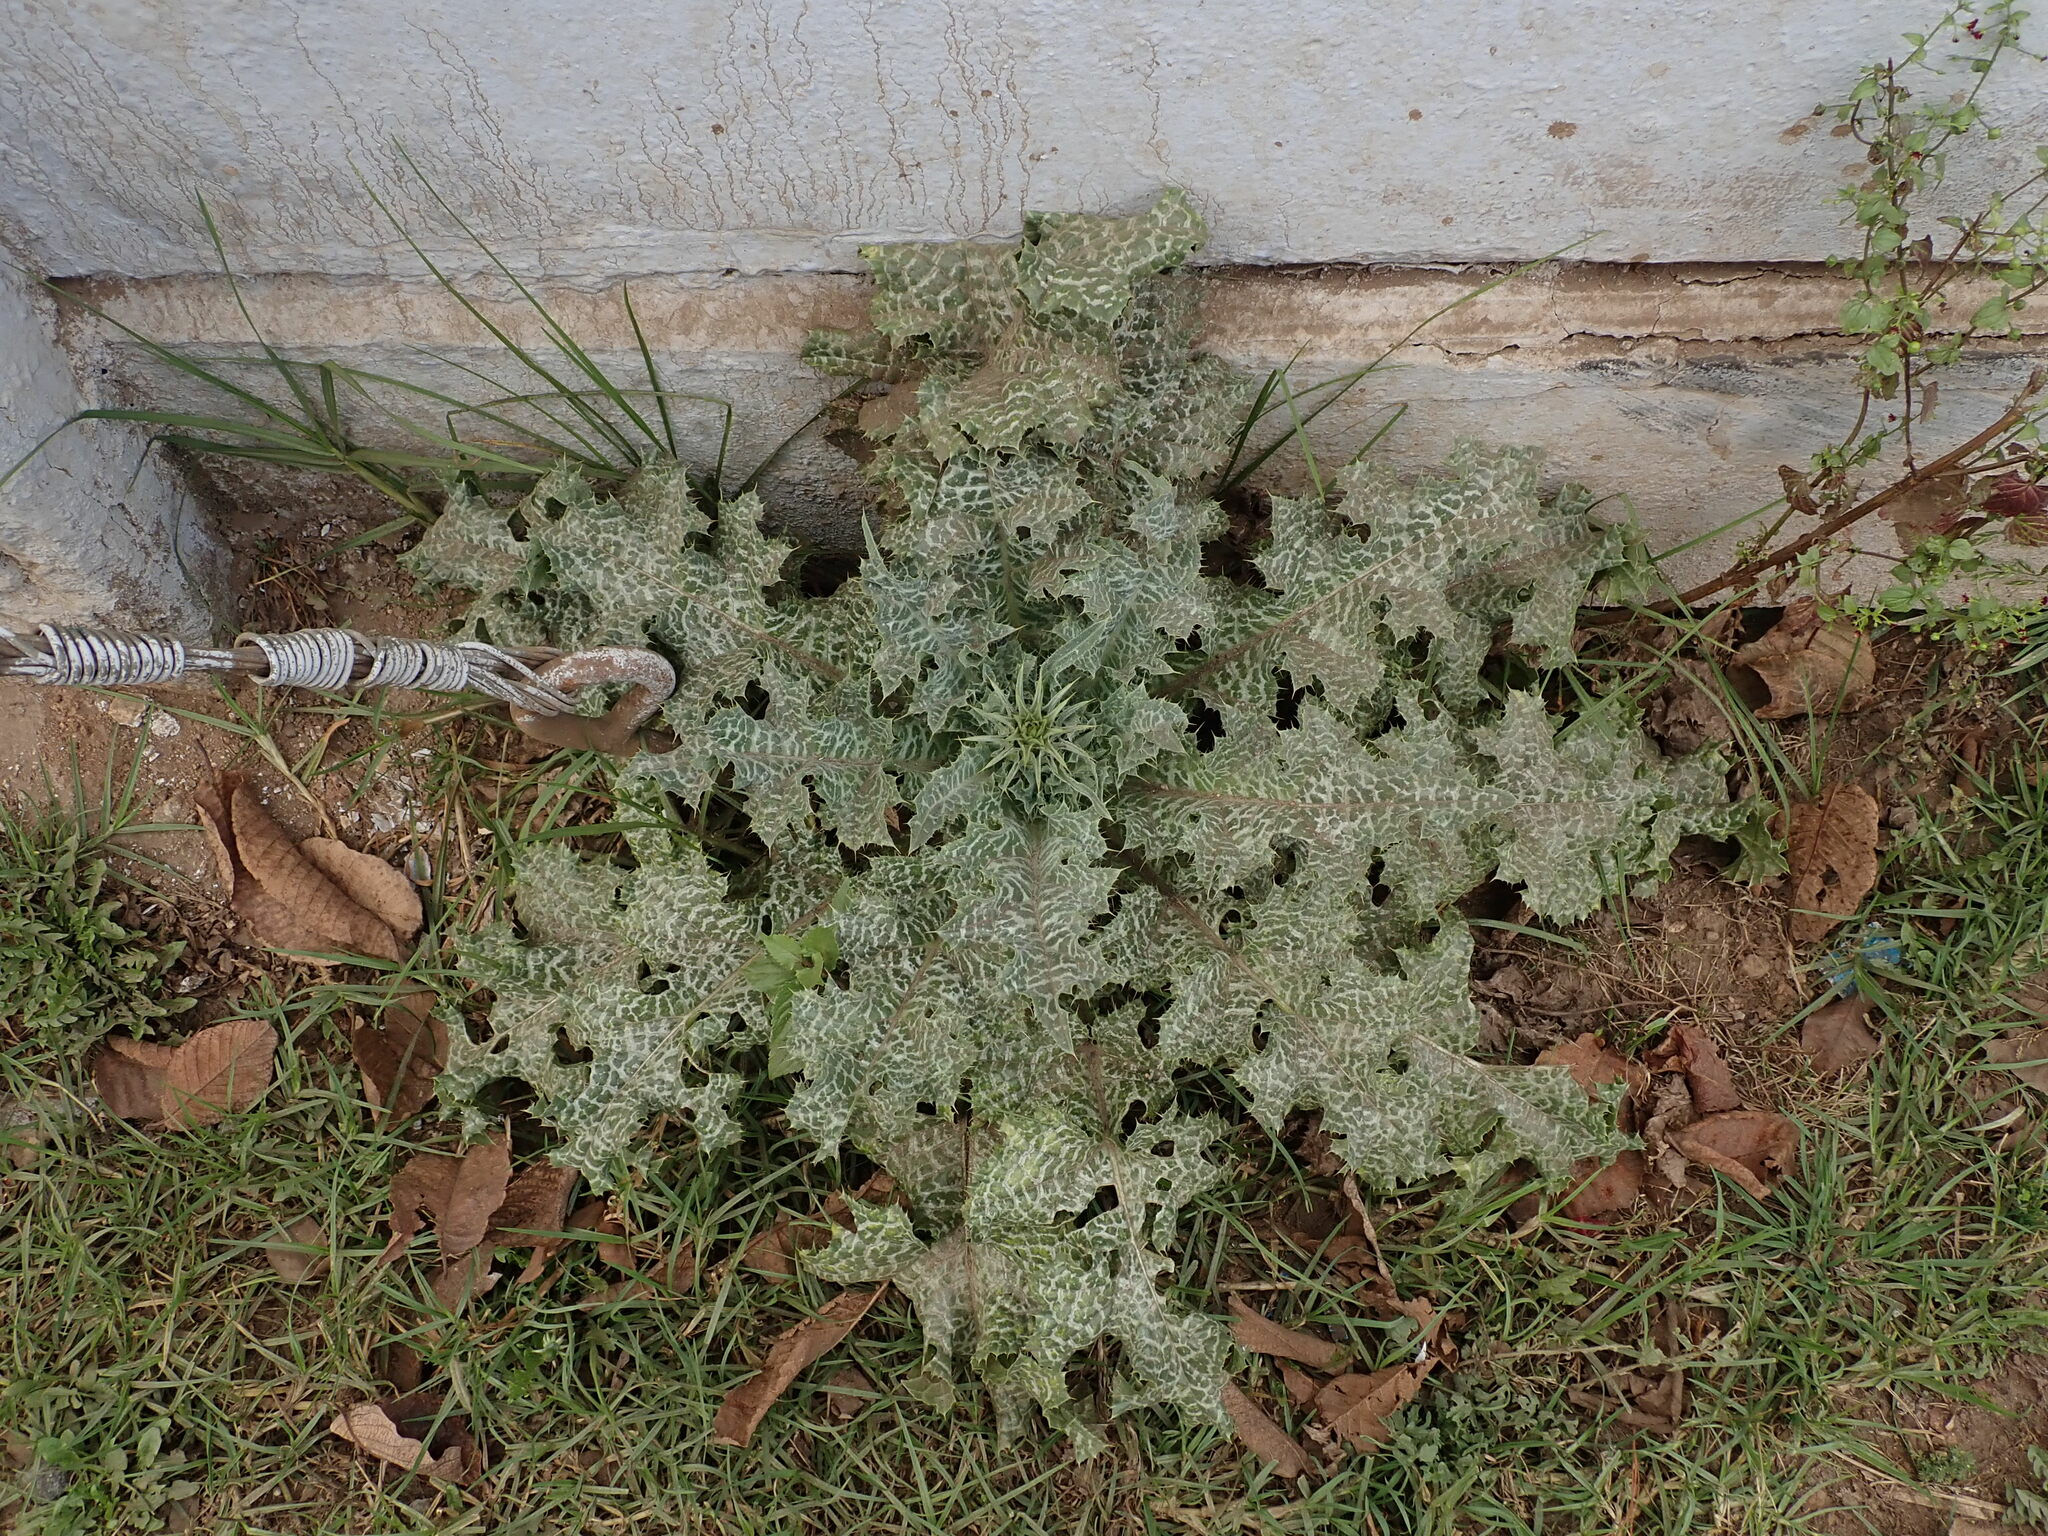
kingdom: Plantae
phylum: Tracheophyta
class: Magnoliopsida
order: Asterales
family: Asteraceae
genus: Silybum
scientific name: Silybum marianum
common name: Milk thistle
